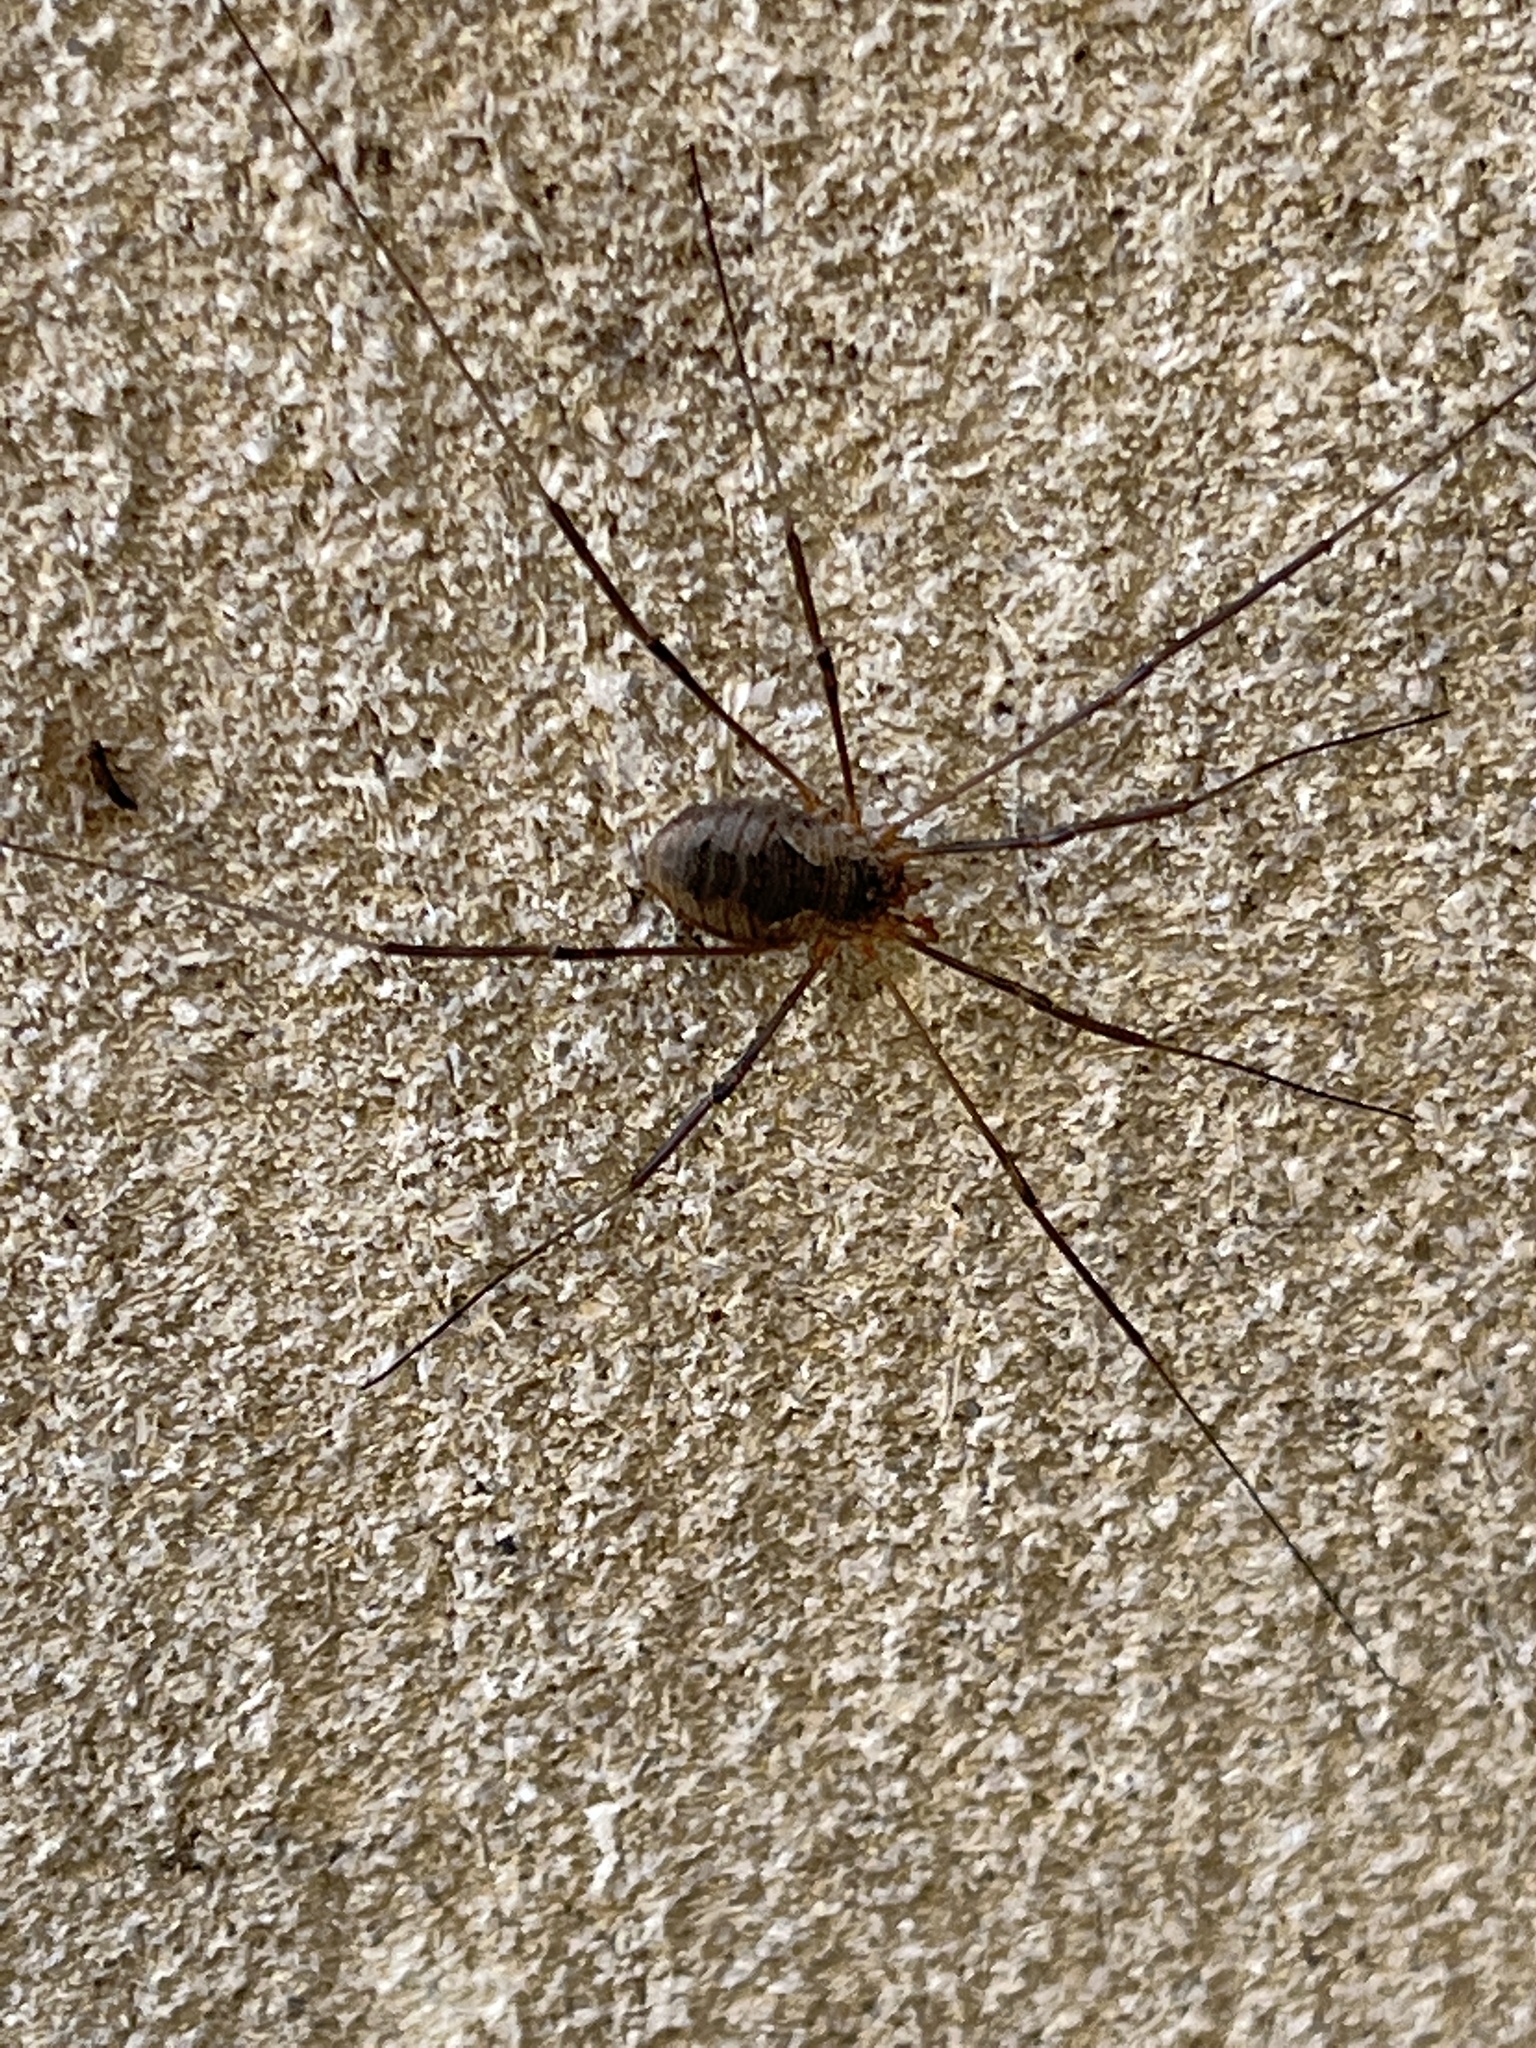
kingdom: Animalia
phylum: Arthropoda
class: Arachnida
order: Opiliones
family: Phalangiidae
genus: Phalangium
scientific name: Phalangium opilio
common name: Daddy longleg
